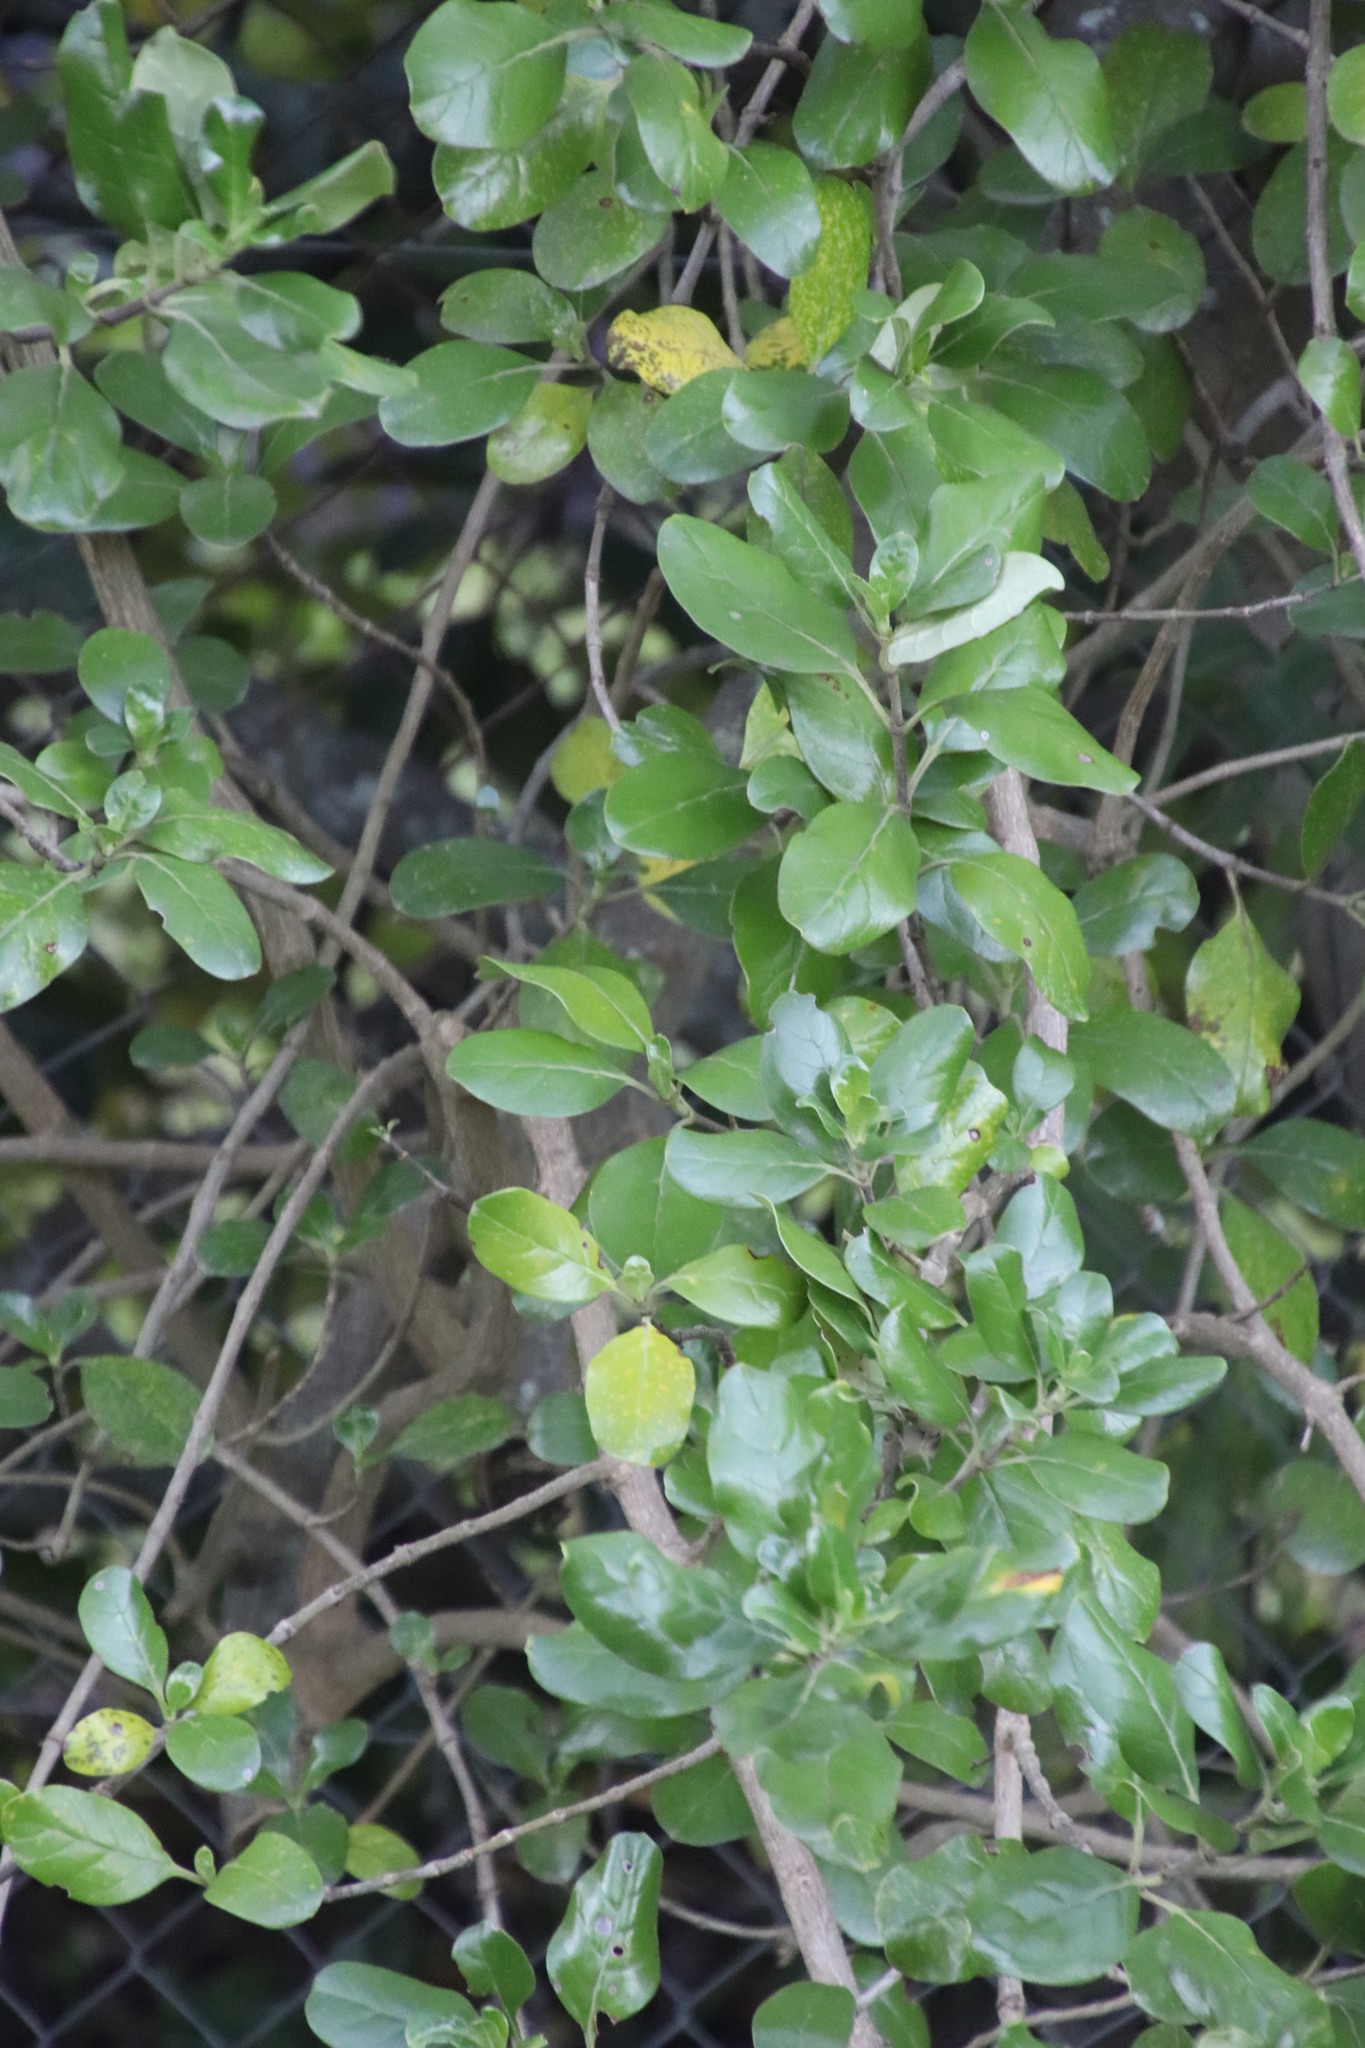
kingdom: Plantae
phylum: Tracheophyta
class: Magnoliopsida
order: Gentianales
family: Rubiaceae
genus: Coprosma
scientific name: Coprosma repens
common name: Tree bedstraw
